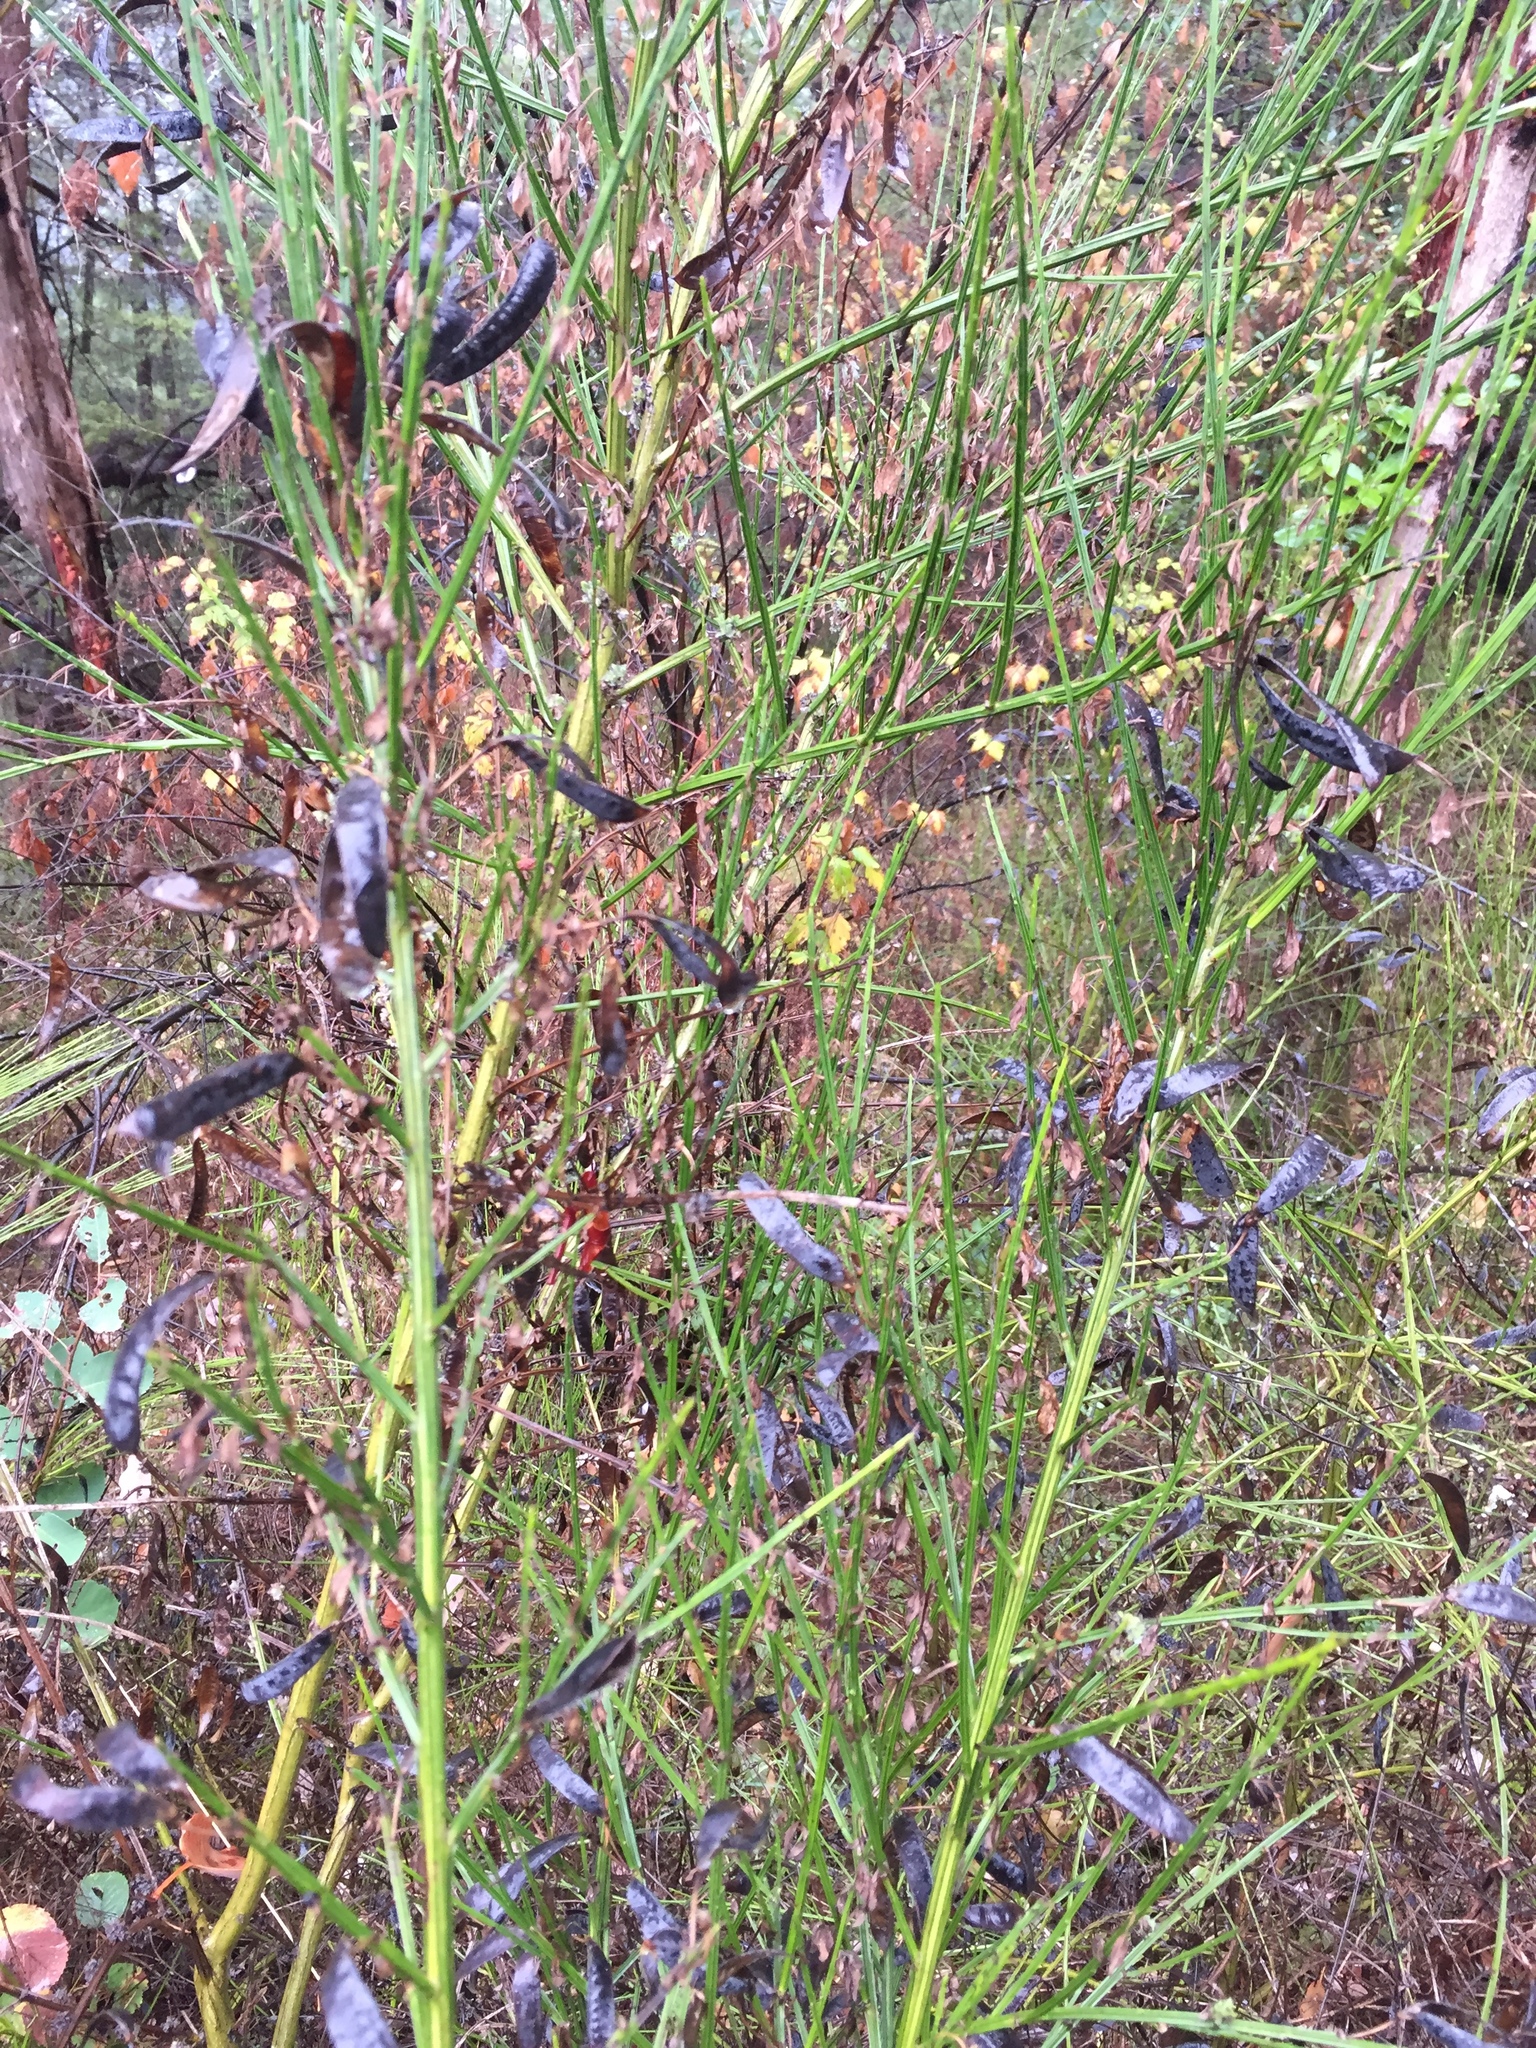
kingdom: Plantae
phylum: Tracheophyta
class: Magnoliopsida
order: Fabales
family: Fabaceae
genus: Cytisus
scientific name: Cytisus scoparius
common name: Scotch broom
